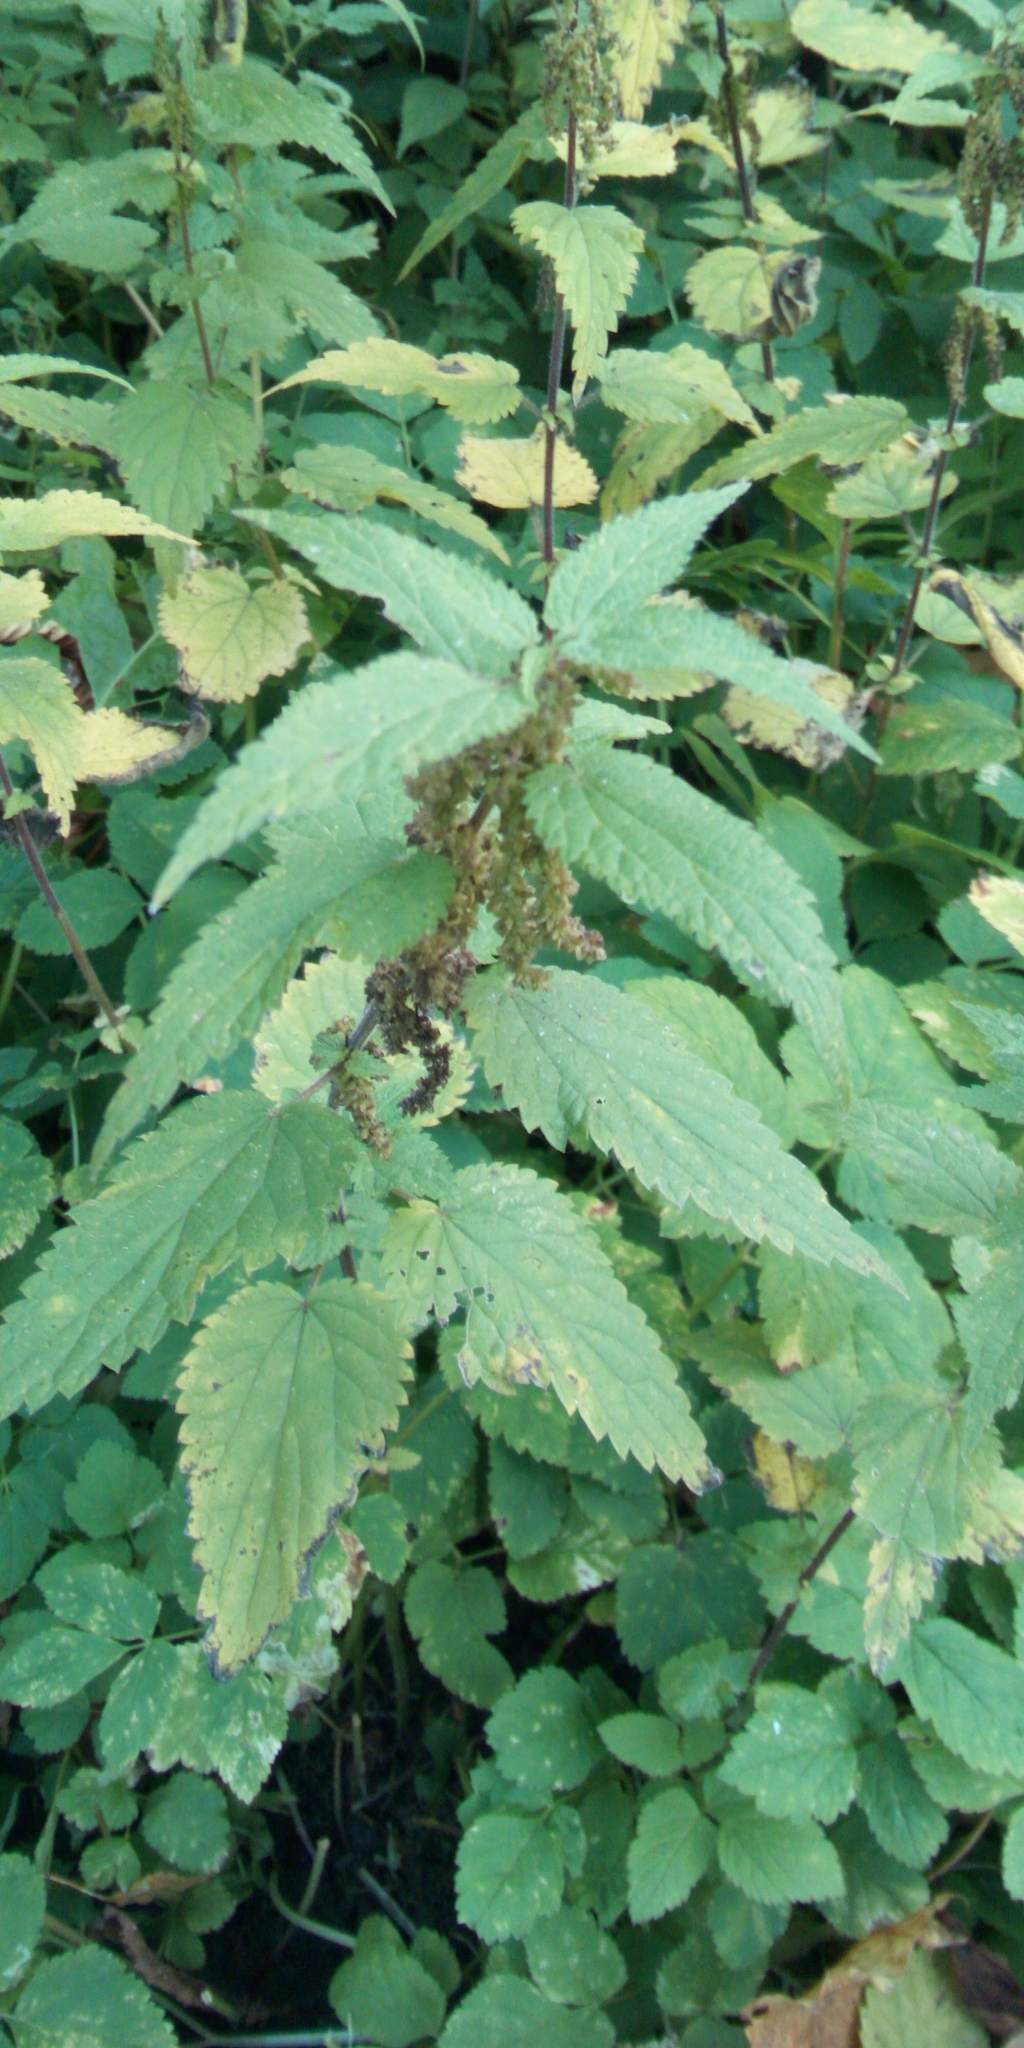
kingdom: Plantae
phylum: Tracheophyta
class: Magnoliopsida
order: Rosales
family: Urticaceae
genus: Urtica
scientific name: Urtica dioica
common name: Common nettle
